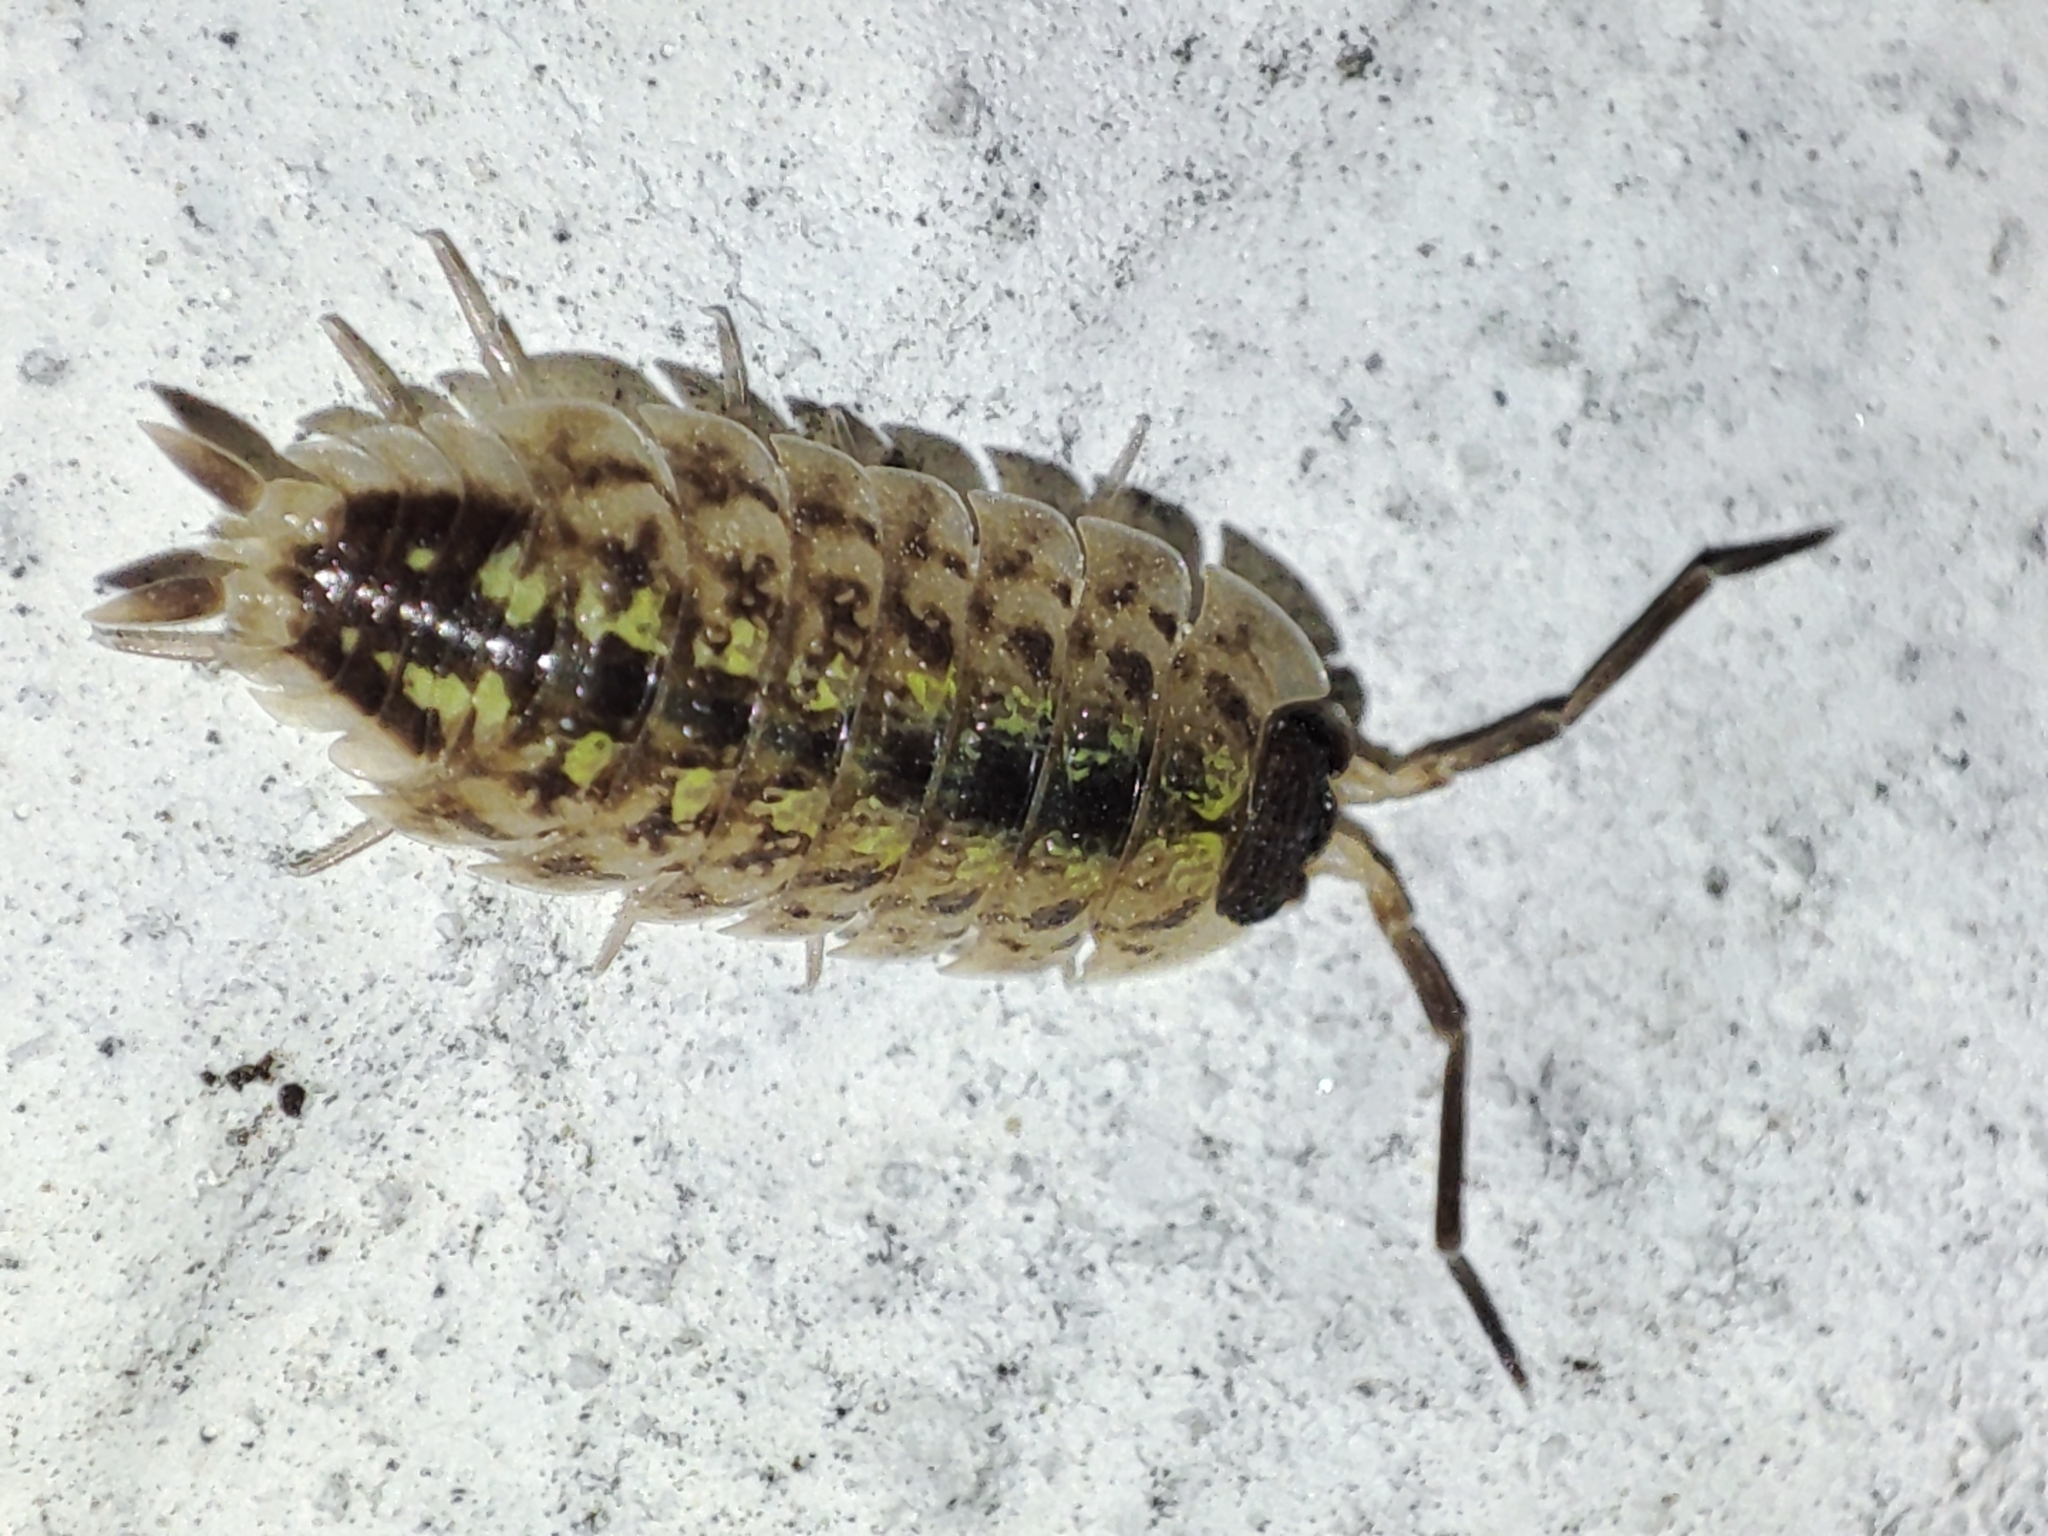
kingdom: Animalia
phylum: Arthropoda
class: Malacostraca
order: Isopoda
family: Porcellionidae
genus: Porcellio
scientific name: Porcellio spinicornis
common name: Painted woodlouse
